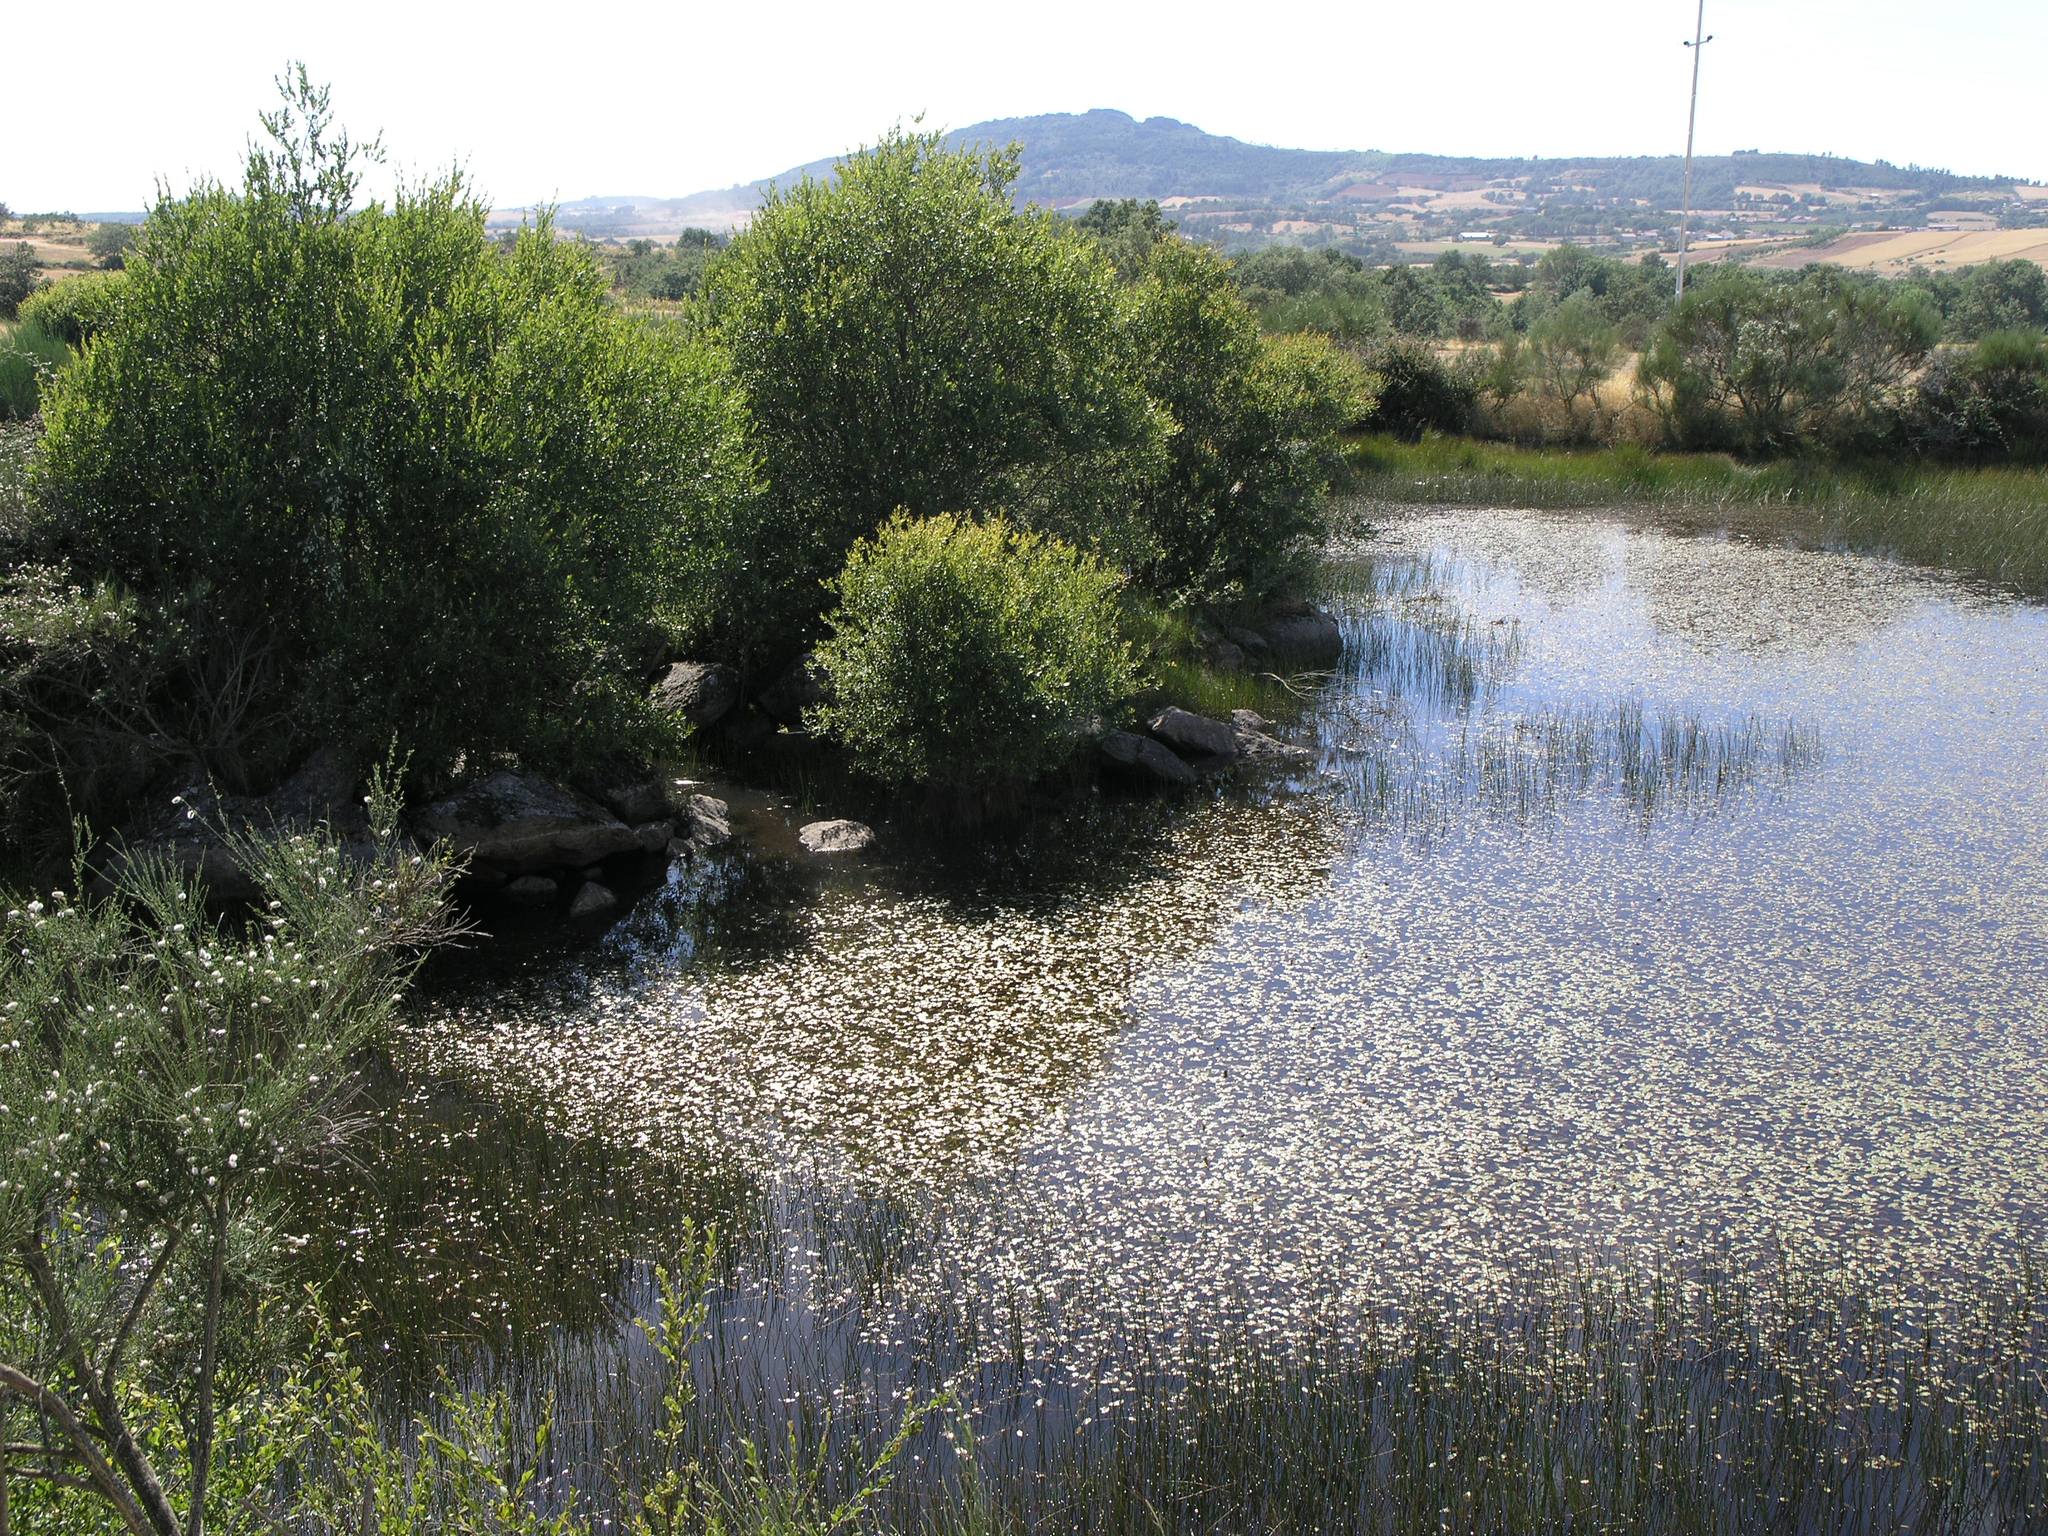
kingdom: Animalia
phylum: Arthropoda
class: Insecta
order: Odonata
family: Coenagrionidae
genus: Coenagrion
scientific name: Coenagrion scitulum
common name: Dainty bluet
